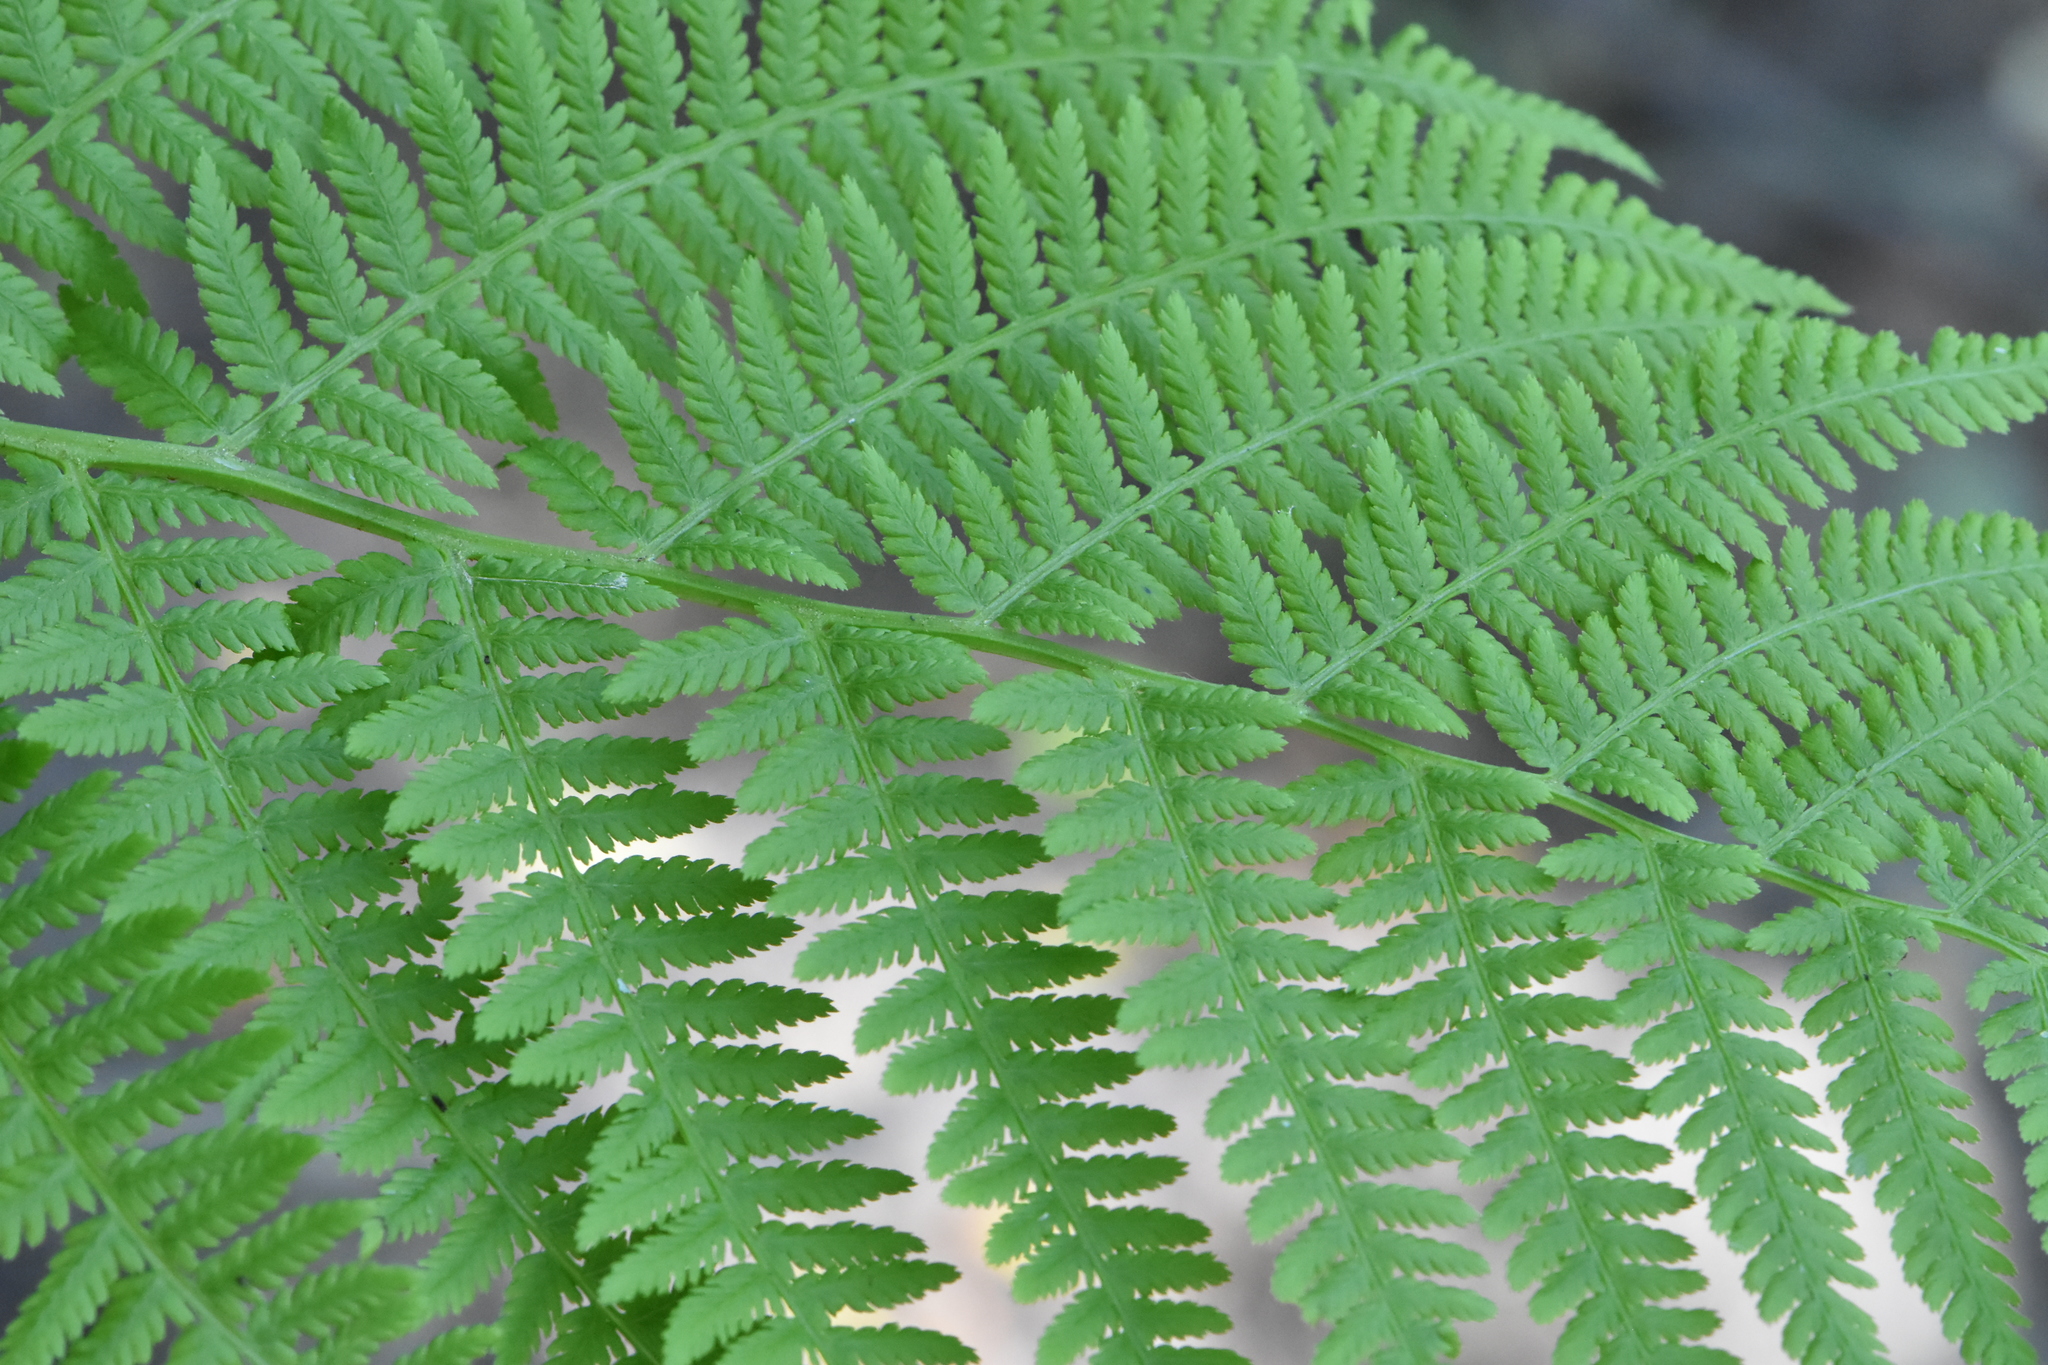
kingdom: Plantae
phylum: Tracheophyta
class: Polypodiopsida
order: Polypodiales
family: Athyriaceae
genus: Athyrium
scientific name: Athyrium filix-femina
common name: Lady fern
